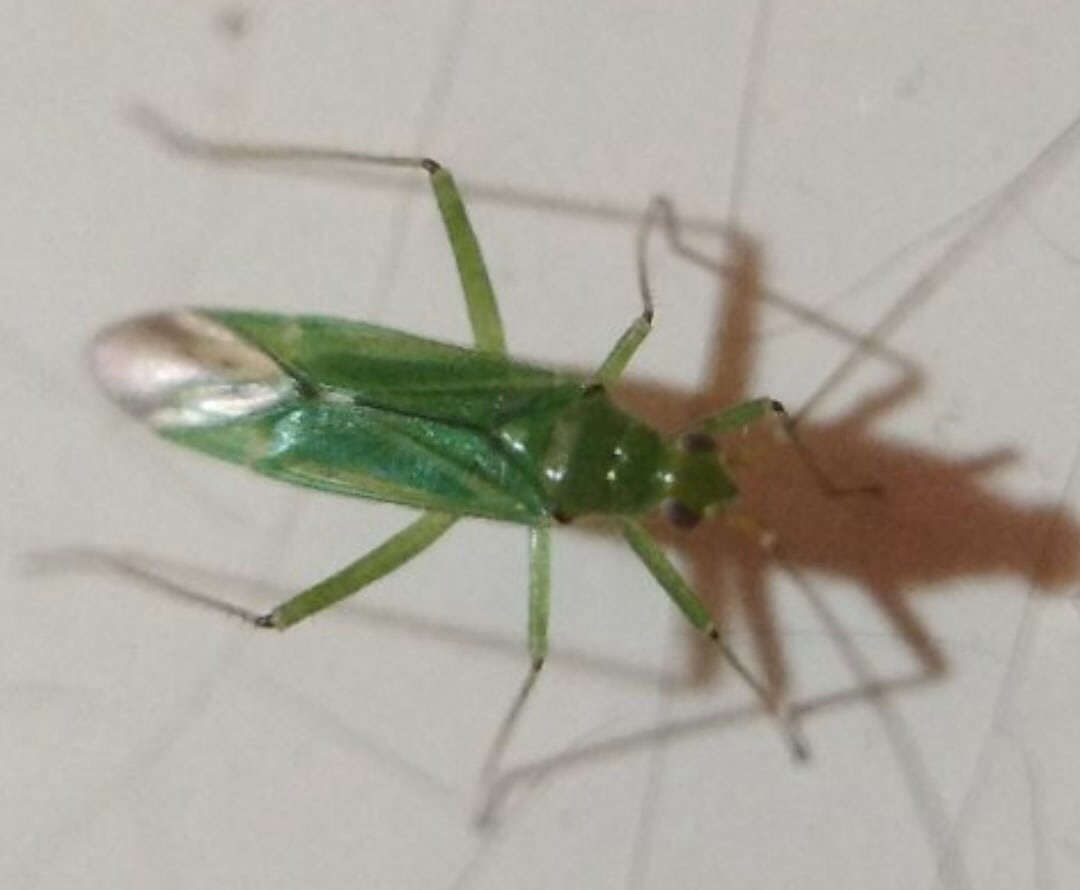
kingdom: Animalia
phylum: Arthropoda
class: Insecta
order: Hemiptera
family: Miridae
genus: Blepharidopterus
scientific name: Blepharidopterus angulatus
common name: Plant bug
